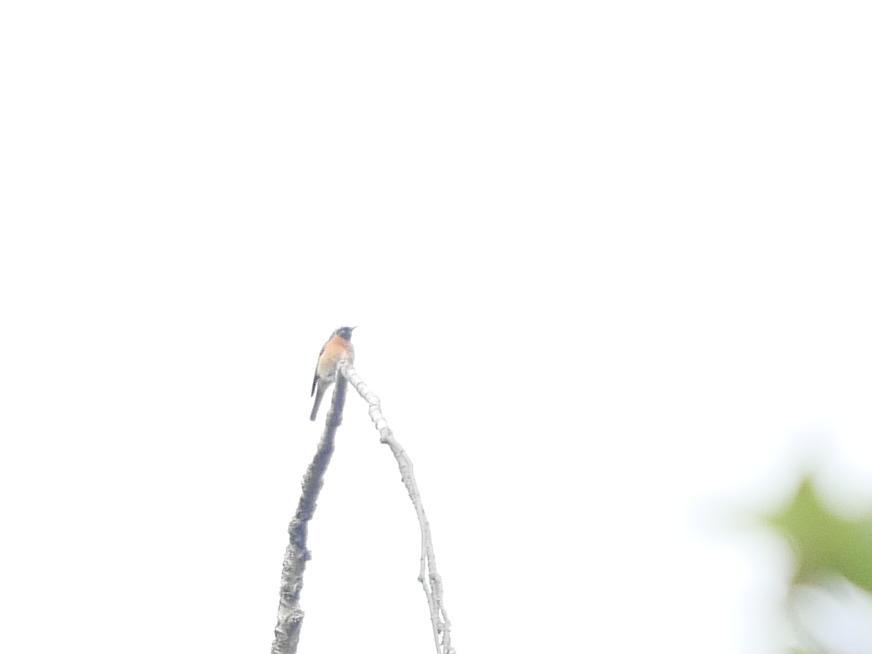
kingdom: Animalia
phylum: Chordata
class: Aves
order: Passeriformes
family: Muscicapidae
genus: Phoenicurus
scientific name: Phoenicurus phoenicurus
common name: Common redstart
